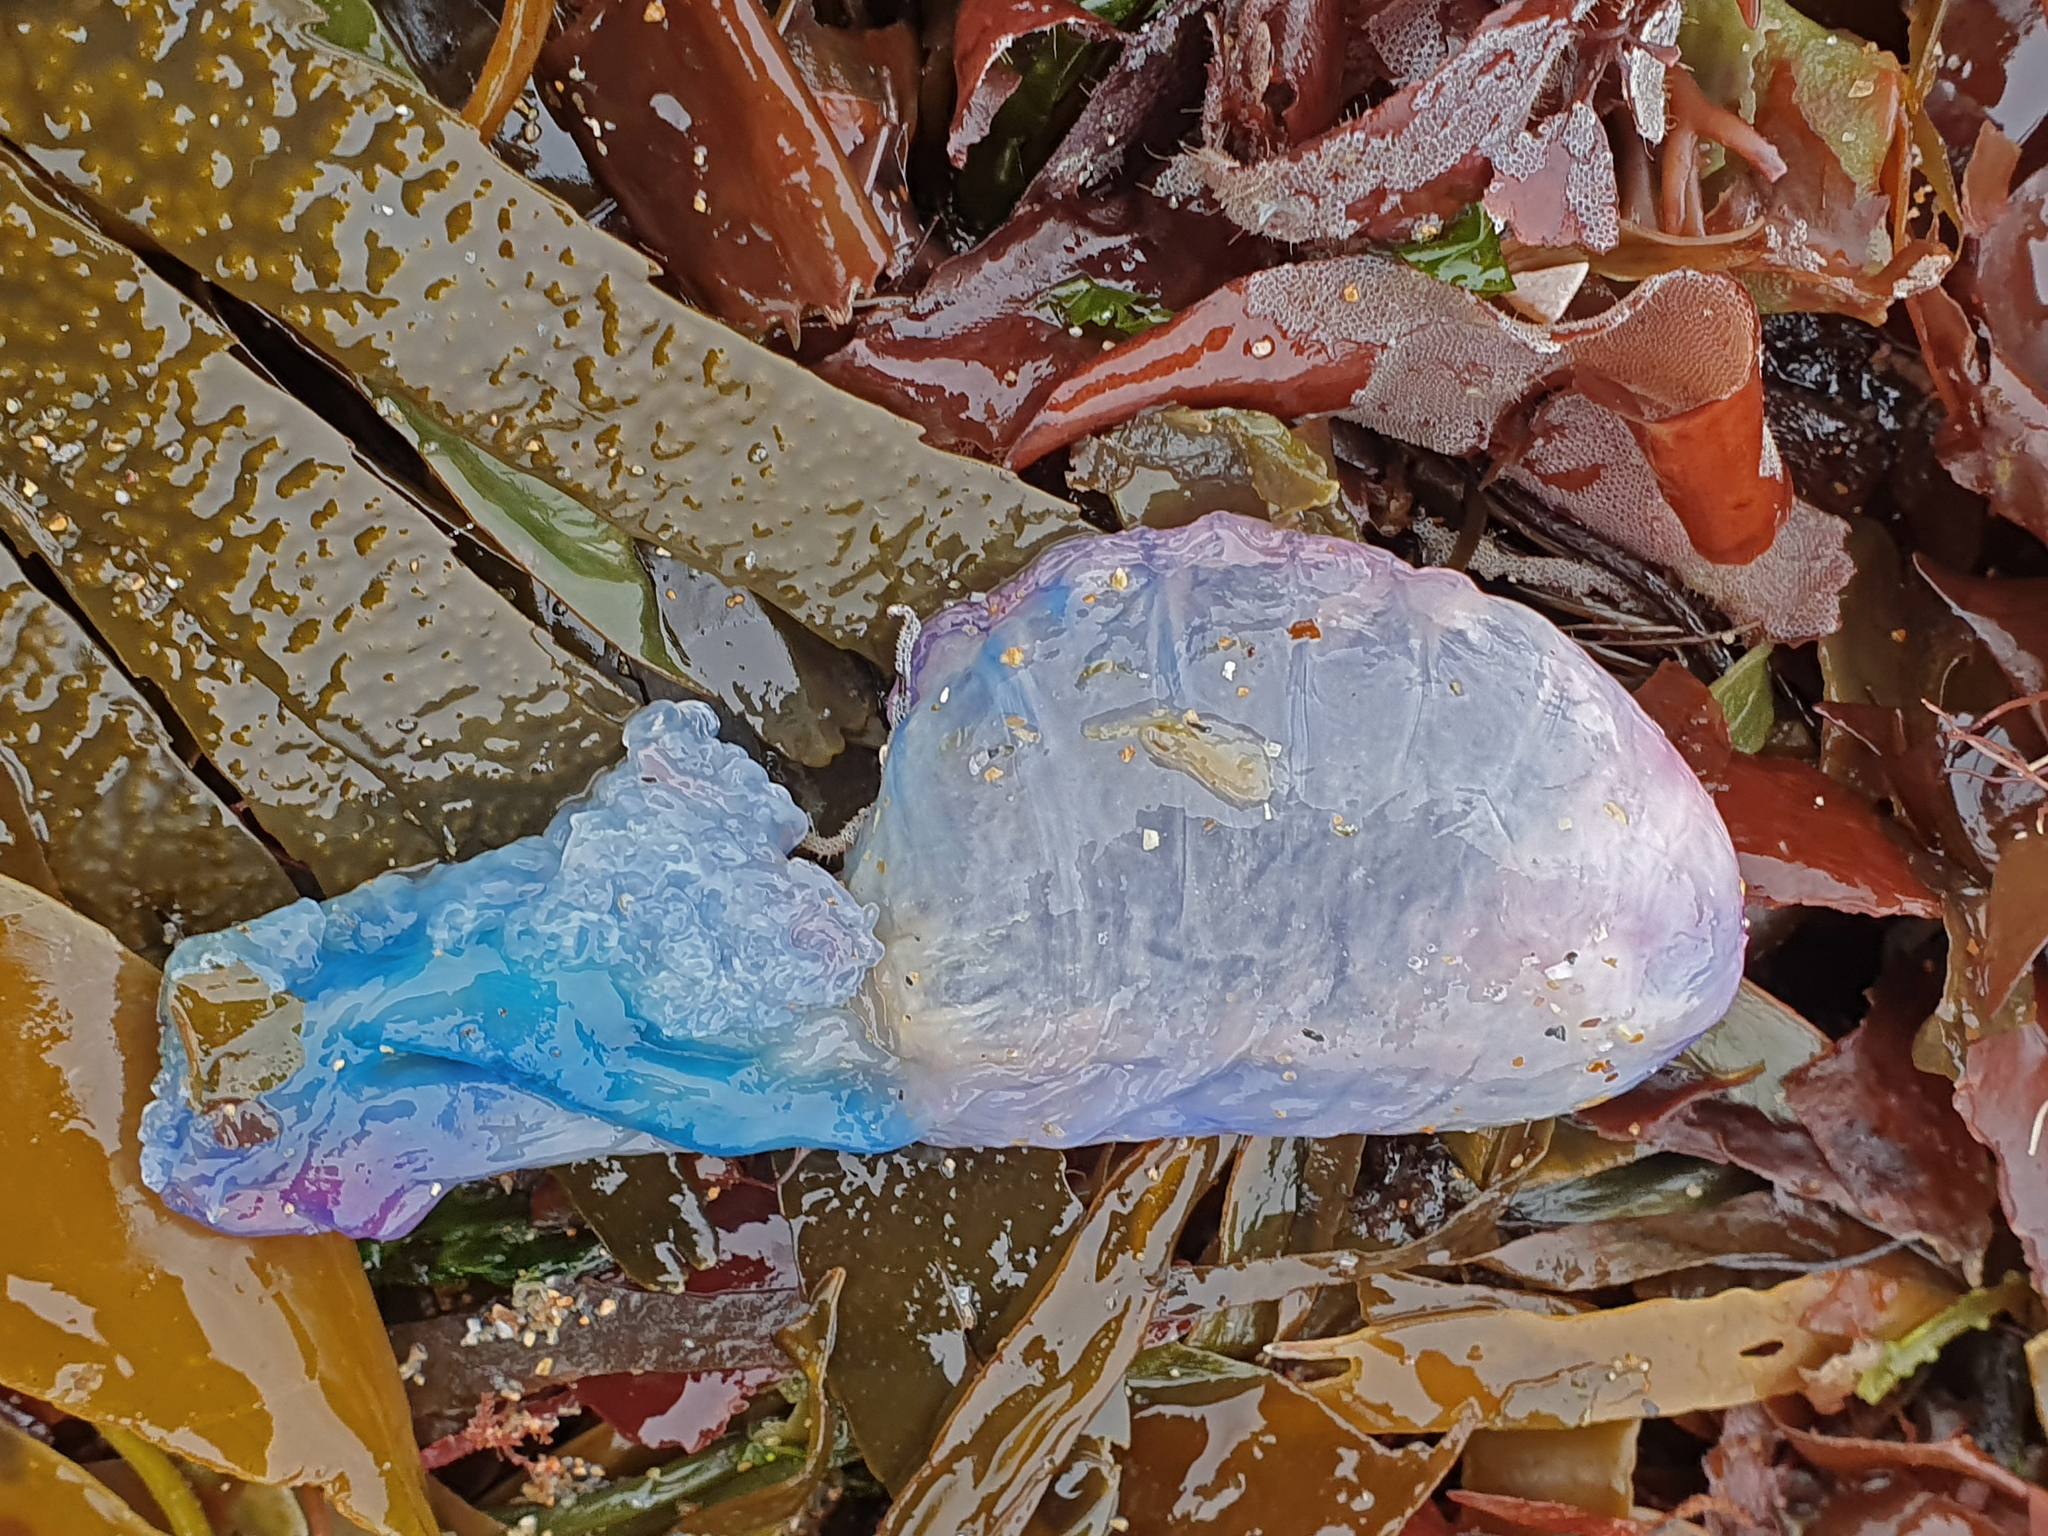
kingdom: Animalia
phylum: Cnidaria
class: Hydrozoa
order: Siphonophorae
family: Physaliidae
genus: Physalia
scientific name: Physalia physalis
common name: Portuguese man-of-war
